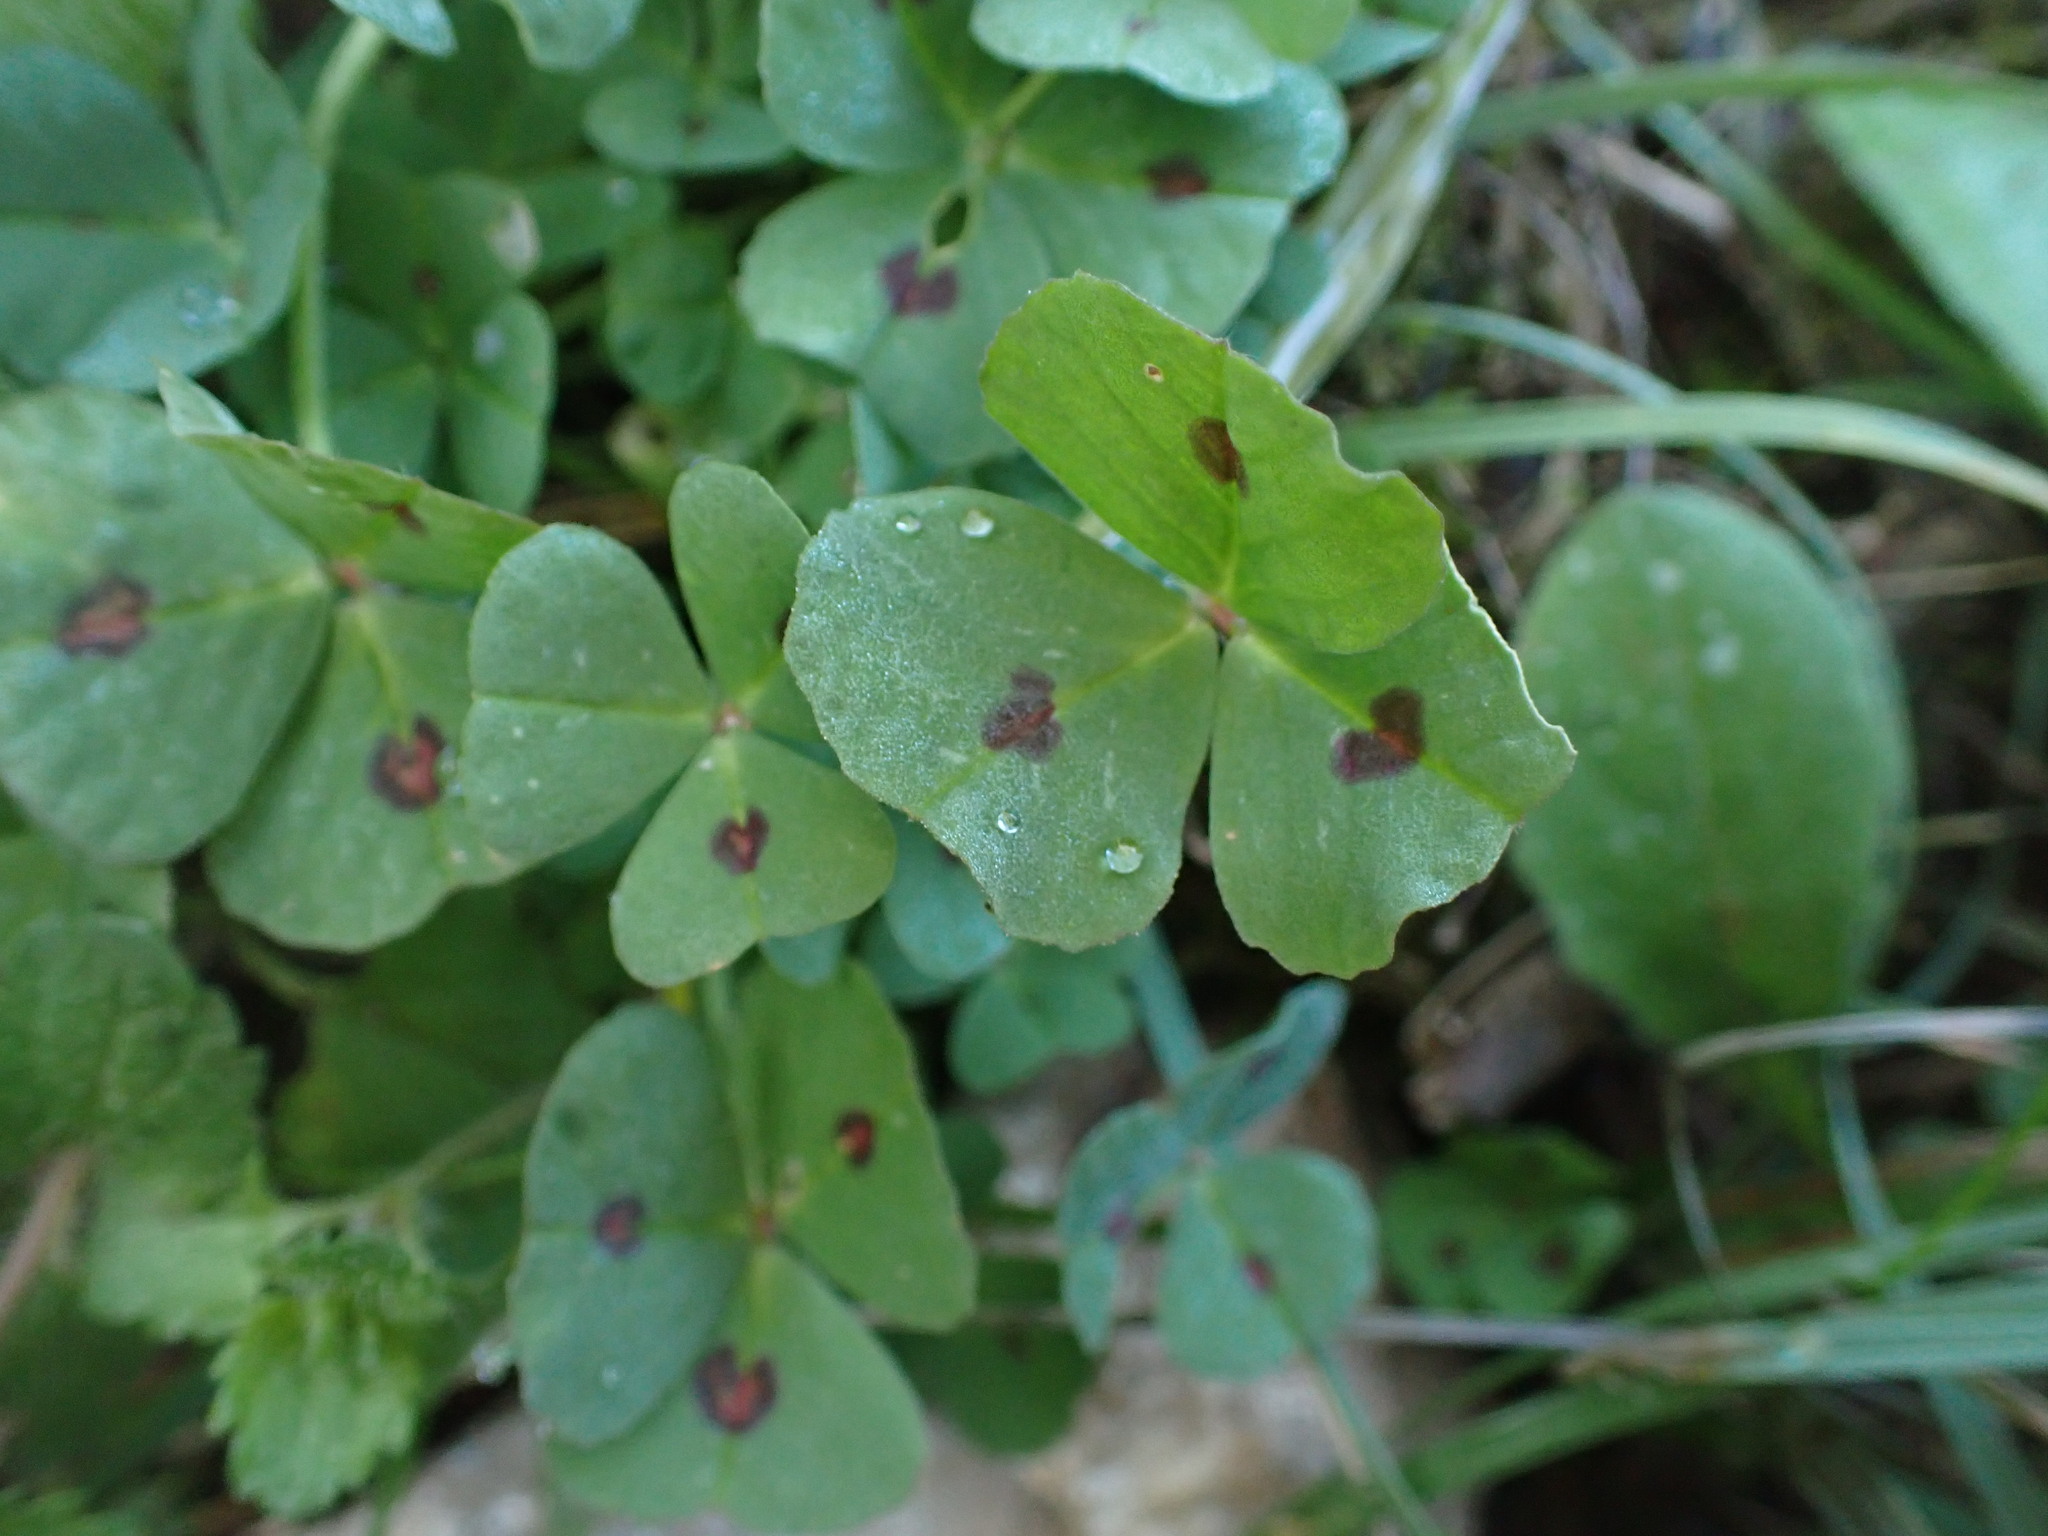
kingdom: Plantae
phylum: Tracheophyta
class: Magnoliopsida
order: Fabales
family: Fabaceae
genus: Medicago
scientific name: Medicago arabica
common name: Spotted medick
